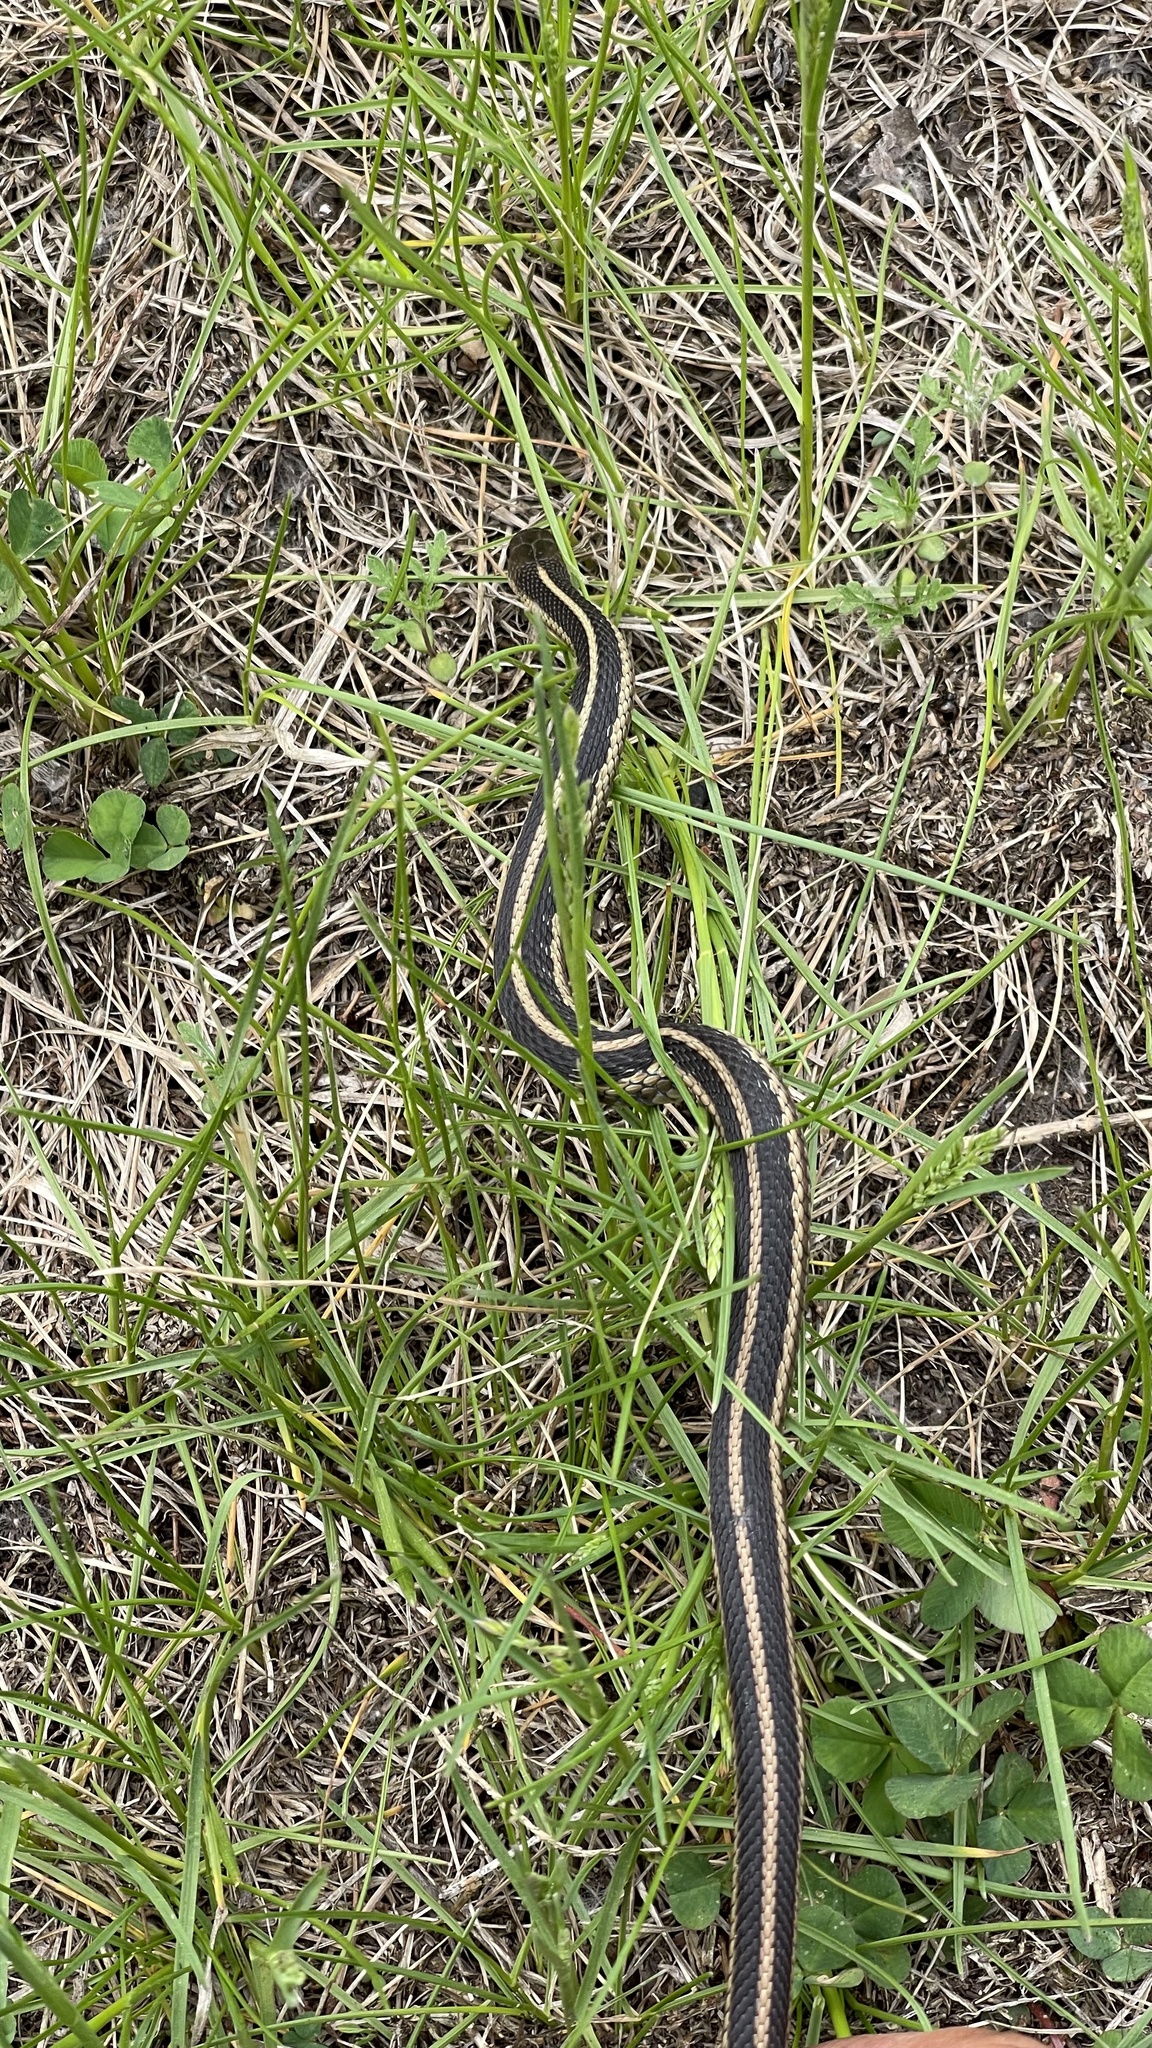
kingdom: Animalia
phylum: Chordata
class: Squamata
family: Colubridae
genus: Thamnophis
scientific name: Thamnophis sirtalis
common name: Common garter snake
